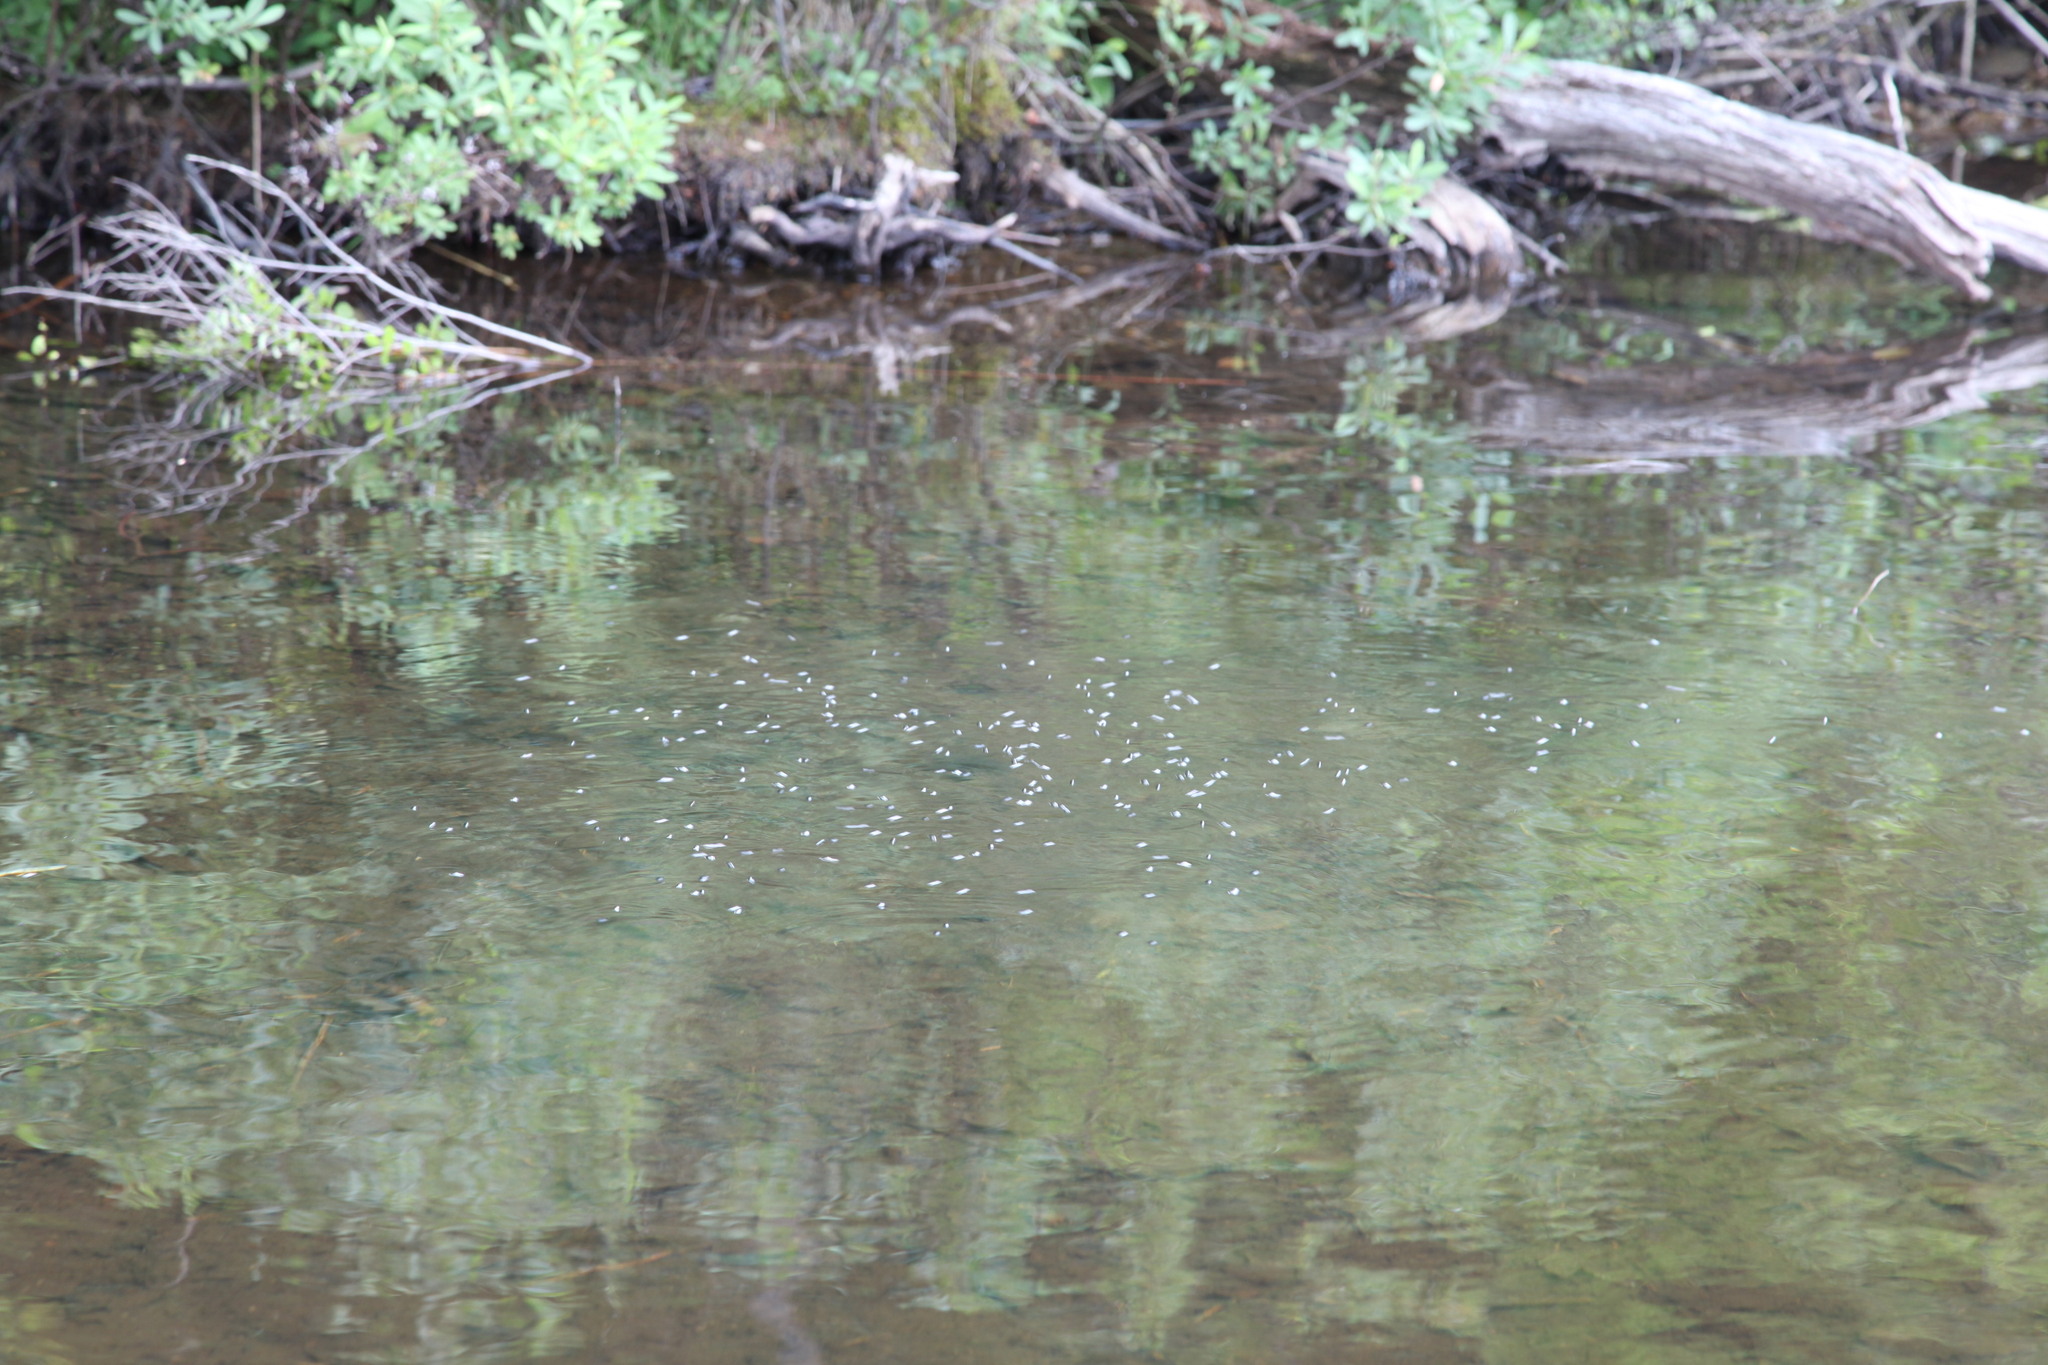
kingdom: Animalia
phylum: Arthropoda
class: Insecta
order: Coleoptera
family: Gyrinidae
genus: Dineutus
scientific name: Dineutus
